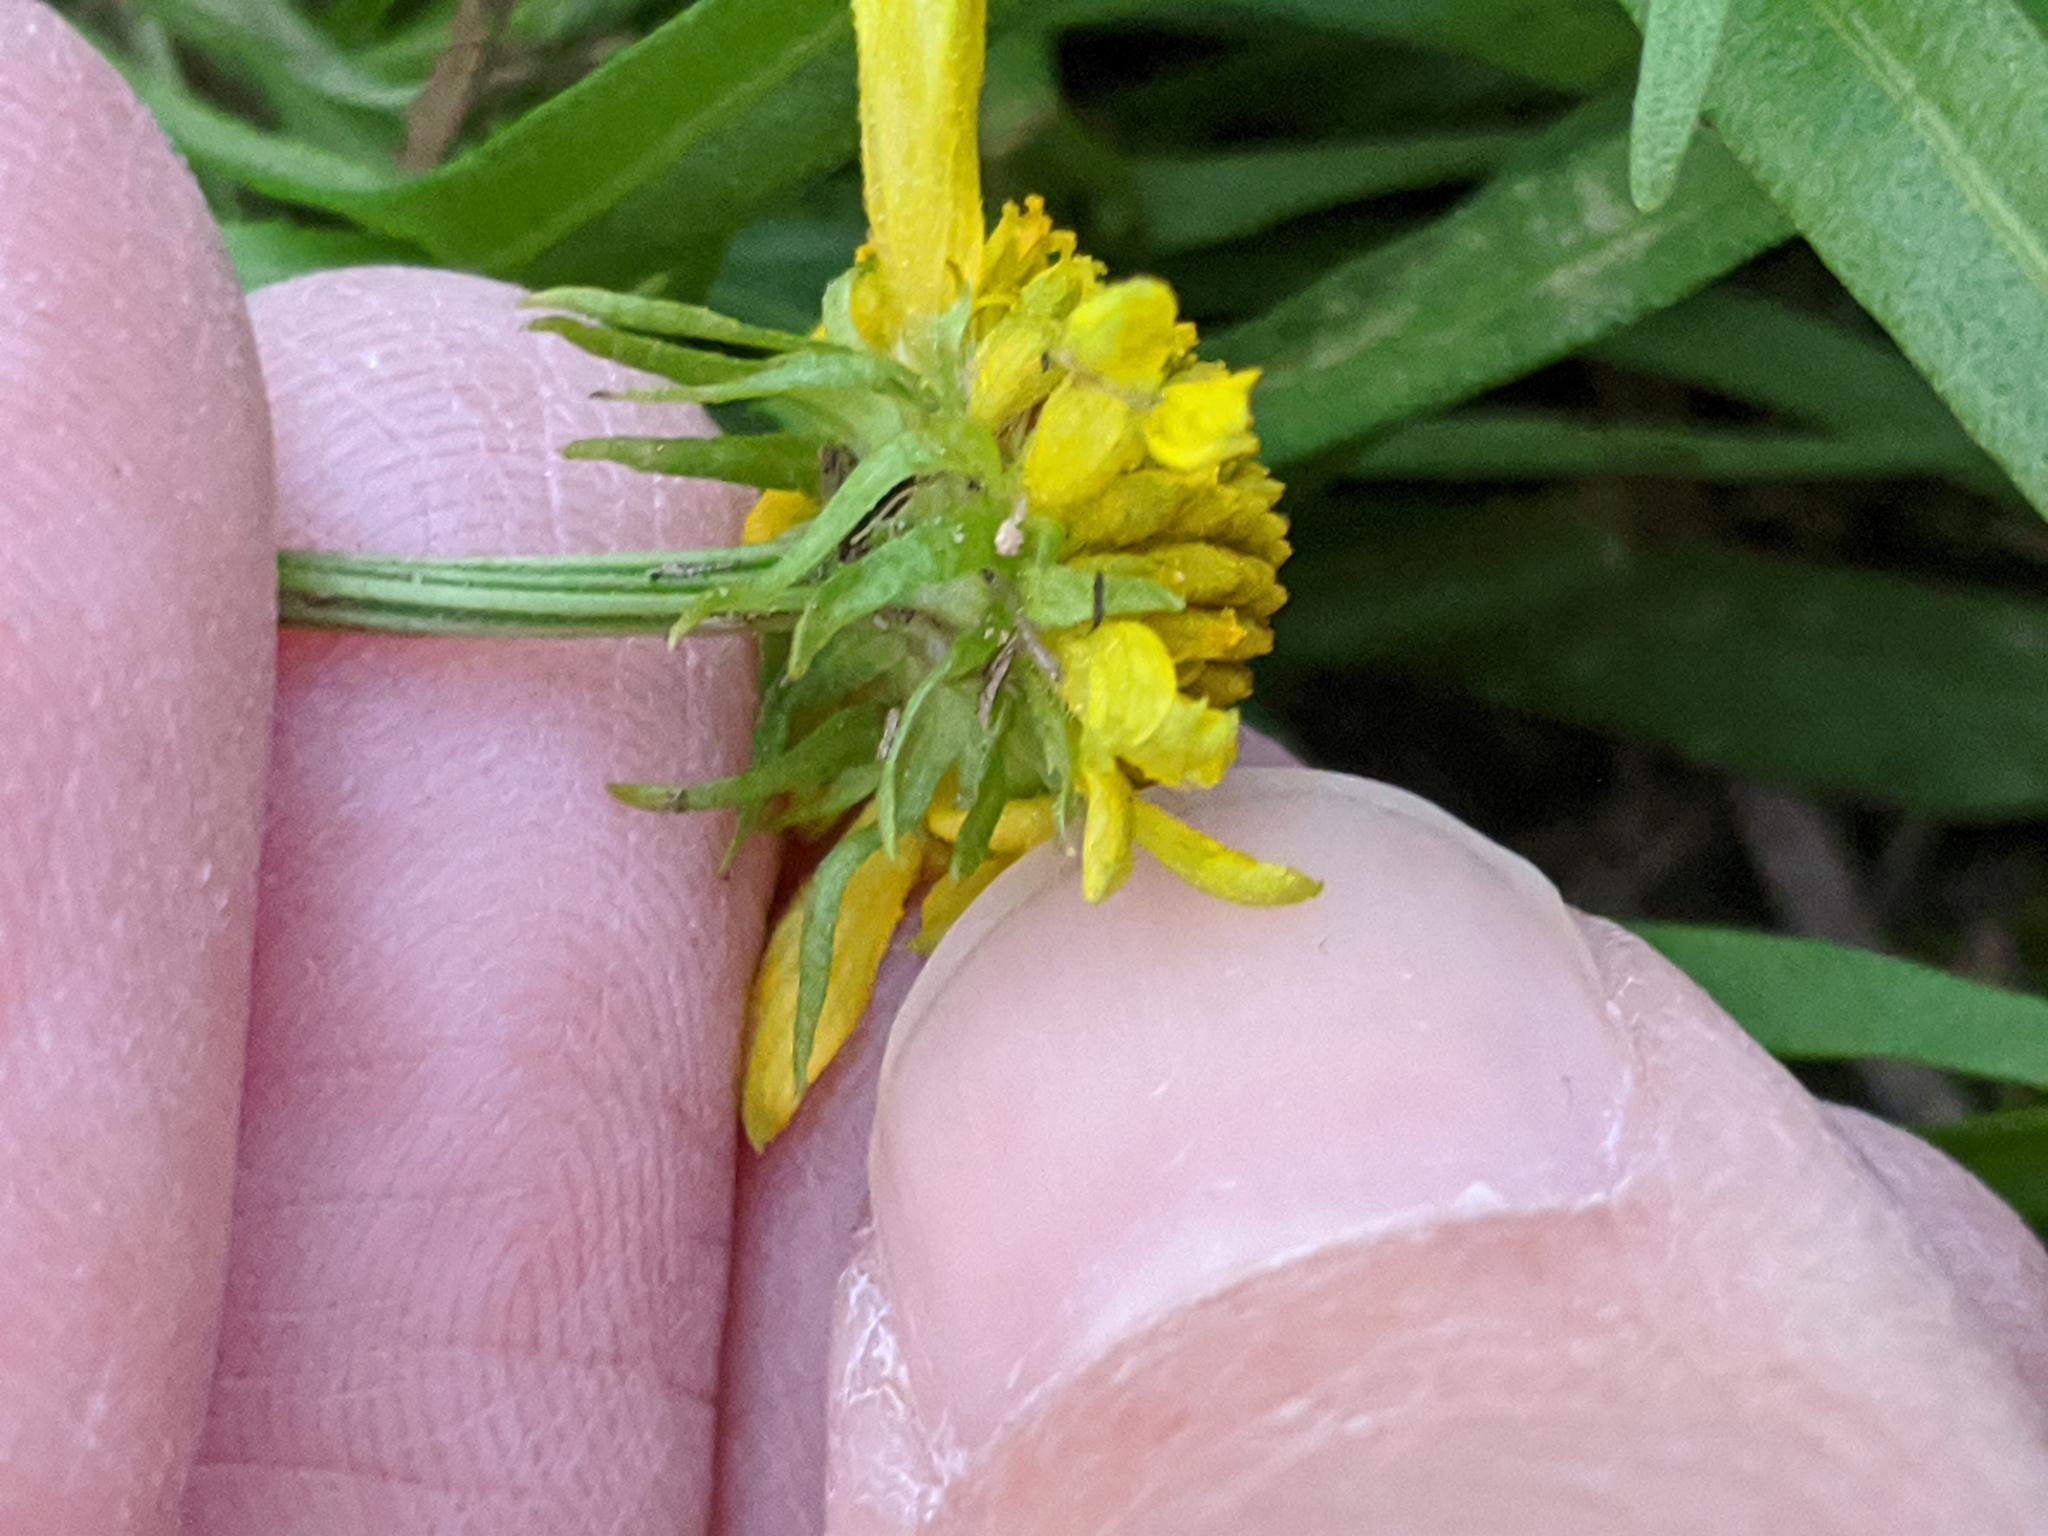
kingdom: Plantae
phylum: Tracheophyta
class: Magnoliopsida
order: Asterales
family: Asteraceae
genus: Helenium
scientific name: Helenium amarum
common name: Bitter sneezeweed
